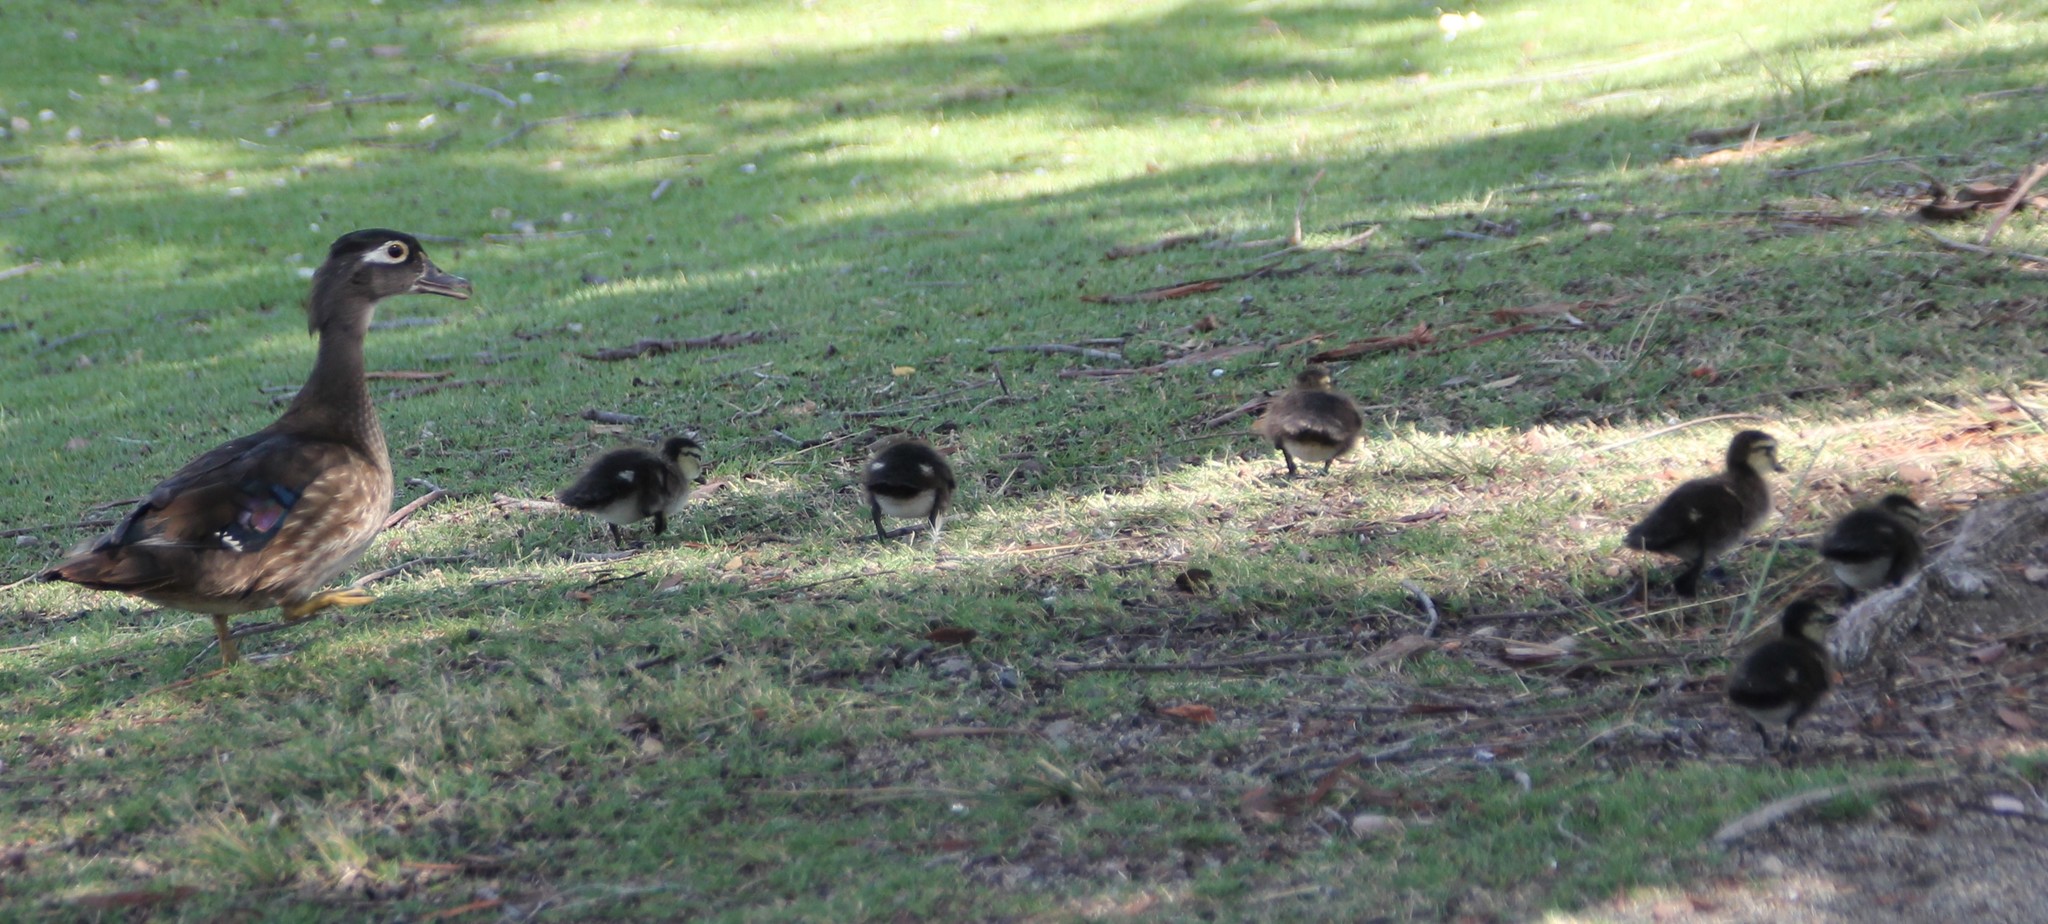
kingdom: Animalia
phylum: Chordata
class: Aves
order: Anseriformes
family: Anatidae
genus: Aix
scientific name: Aix sponsa
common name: Wood duck
